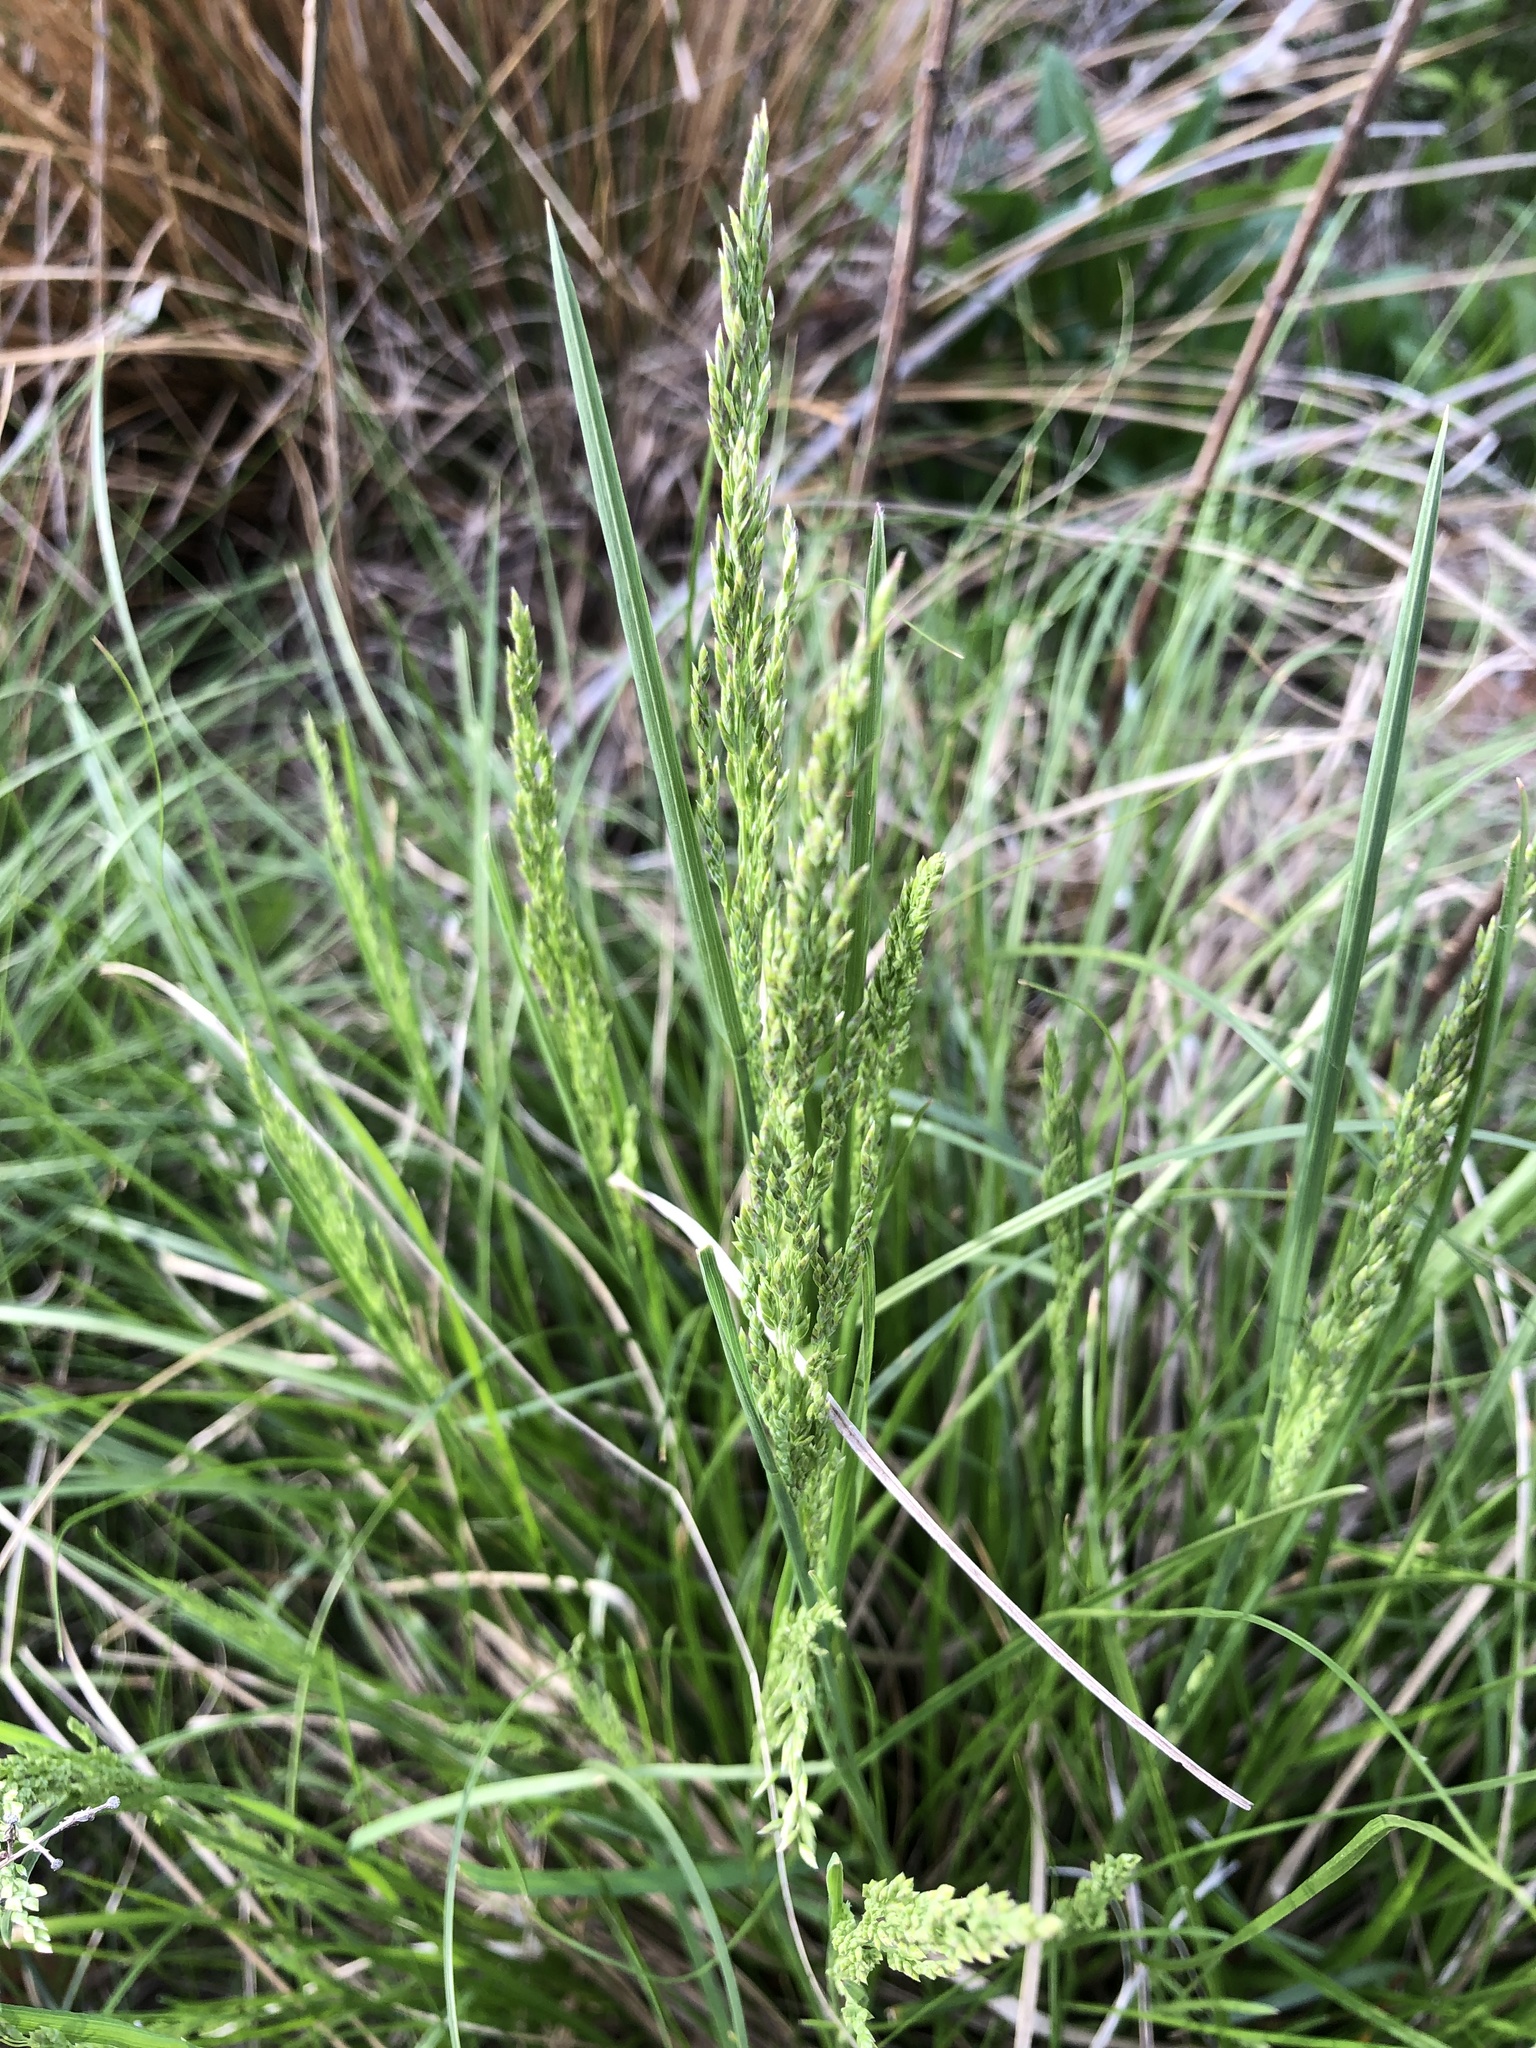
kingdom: Plantae
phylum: Tracheophyta
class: Liliopsida
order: Poales
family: Poaceae
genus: Poa
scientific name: Poa compressa
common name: Canada bluegrass
